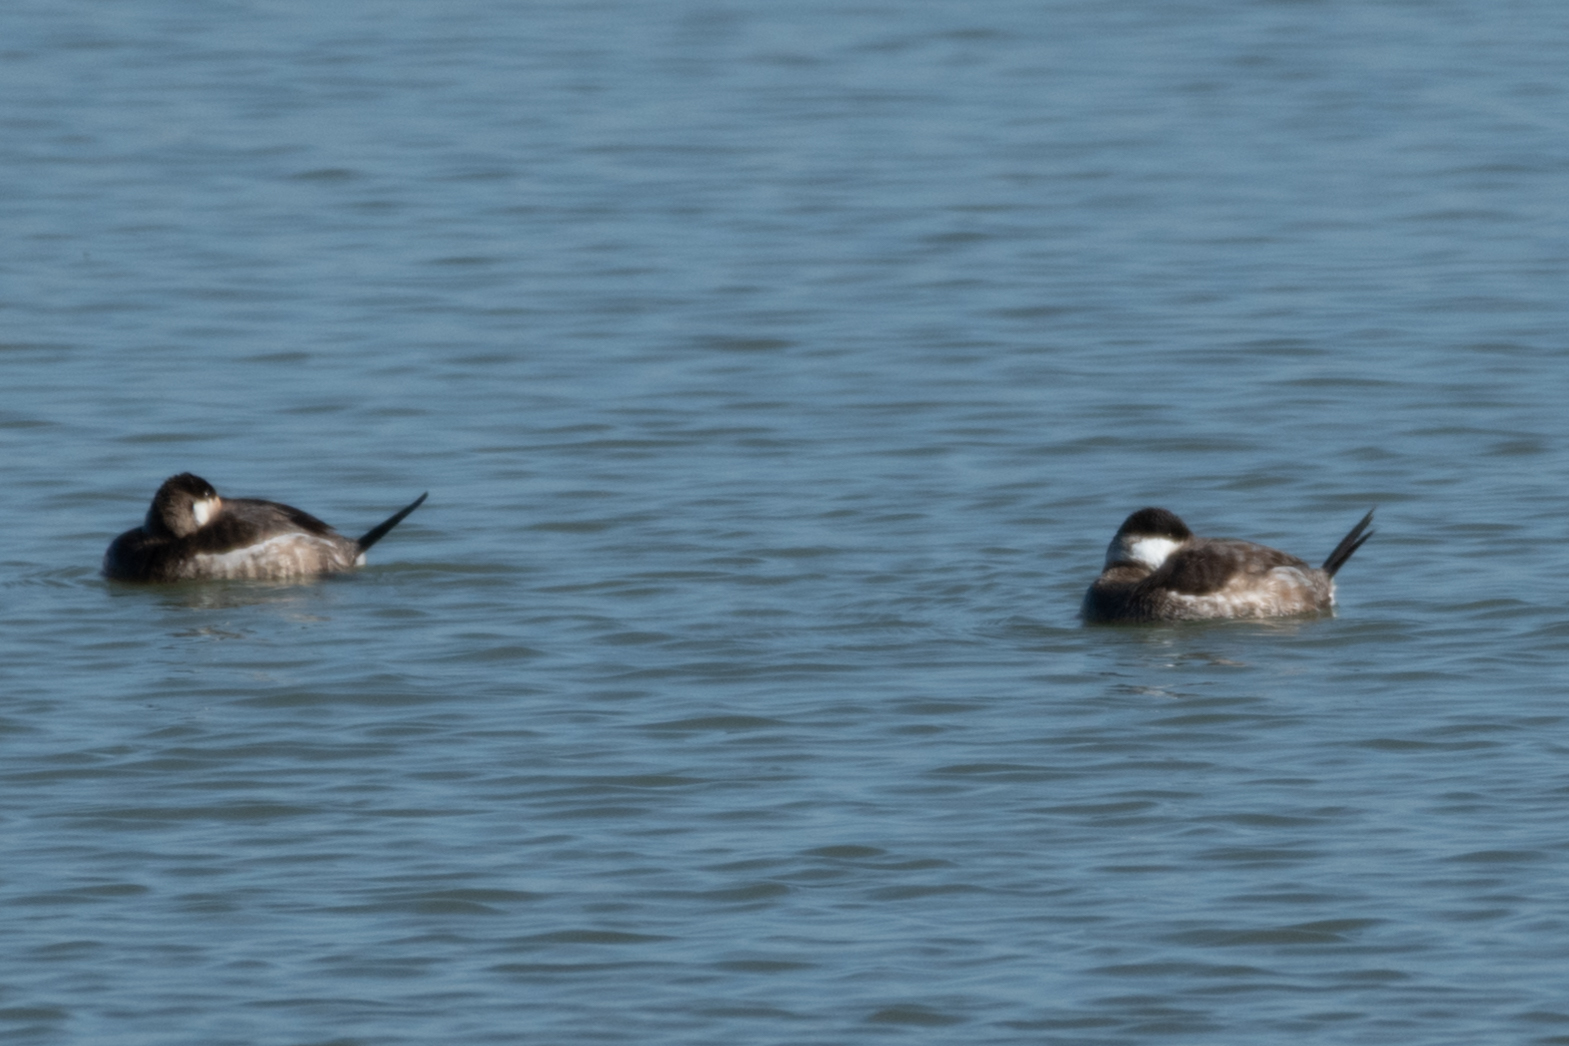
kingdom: Animalia
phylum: Chordata
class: Aves
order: Anseriformes
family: Anatidae
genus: Oxyura
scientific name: Oxyura jamaicensis
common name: Ruddy duck
